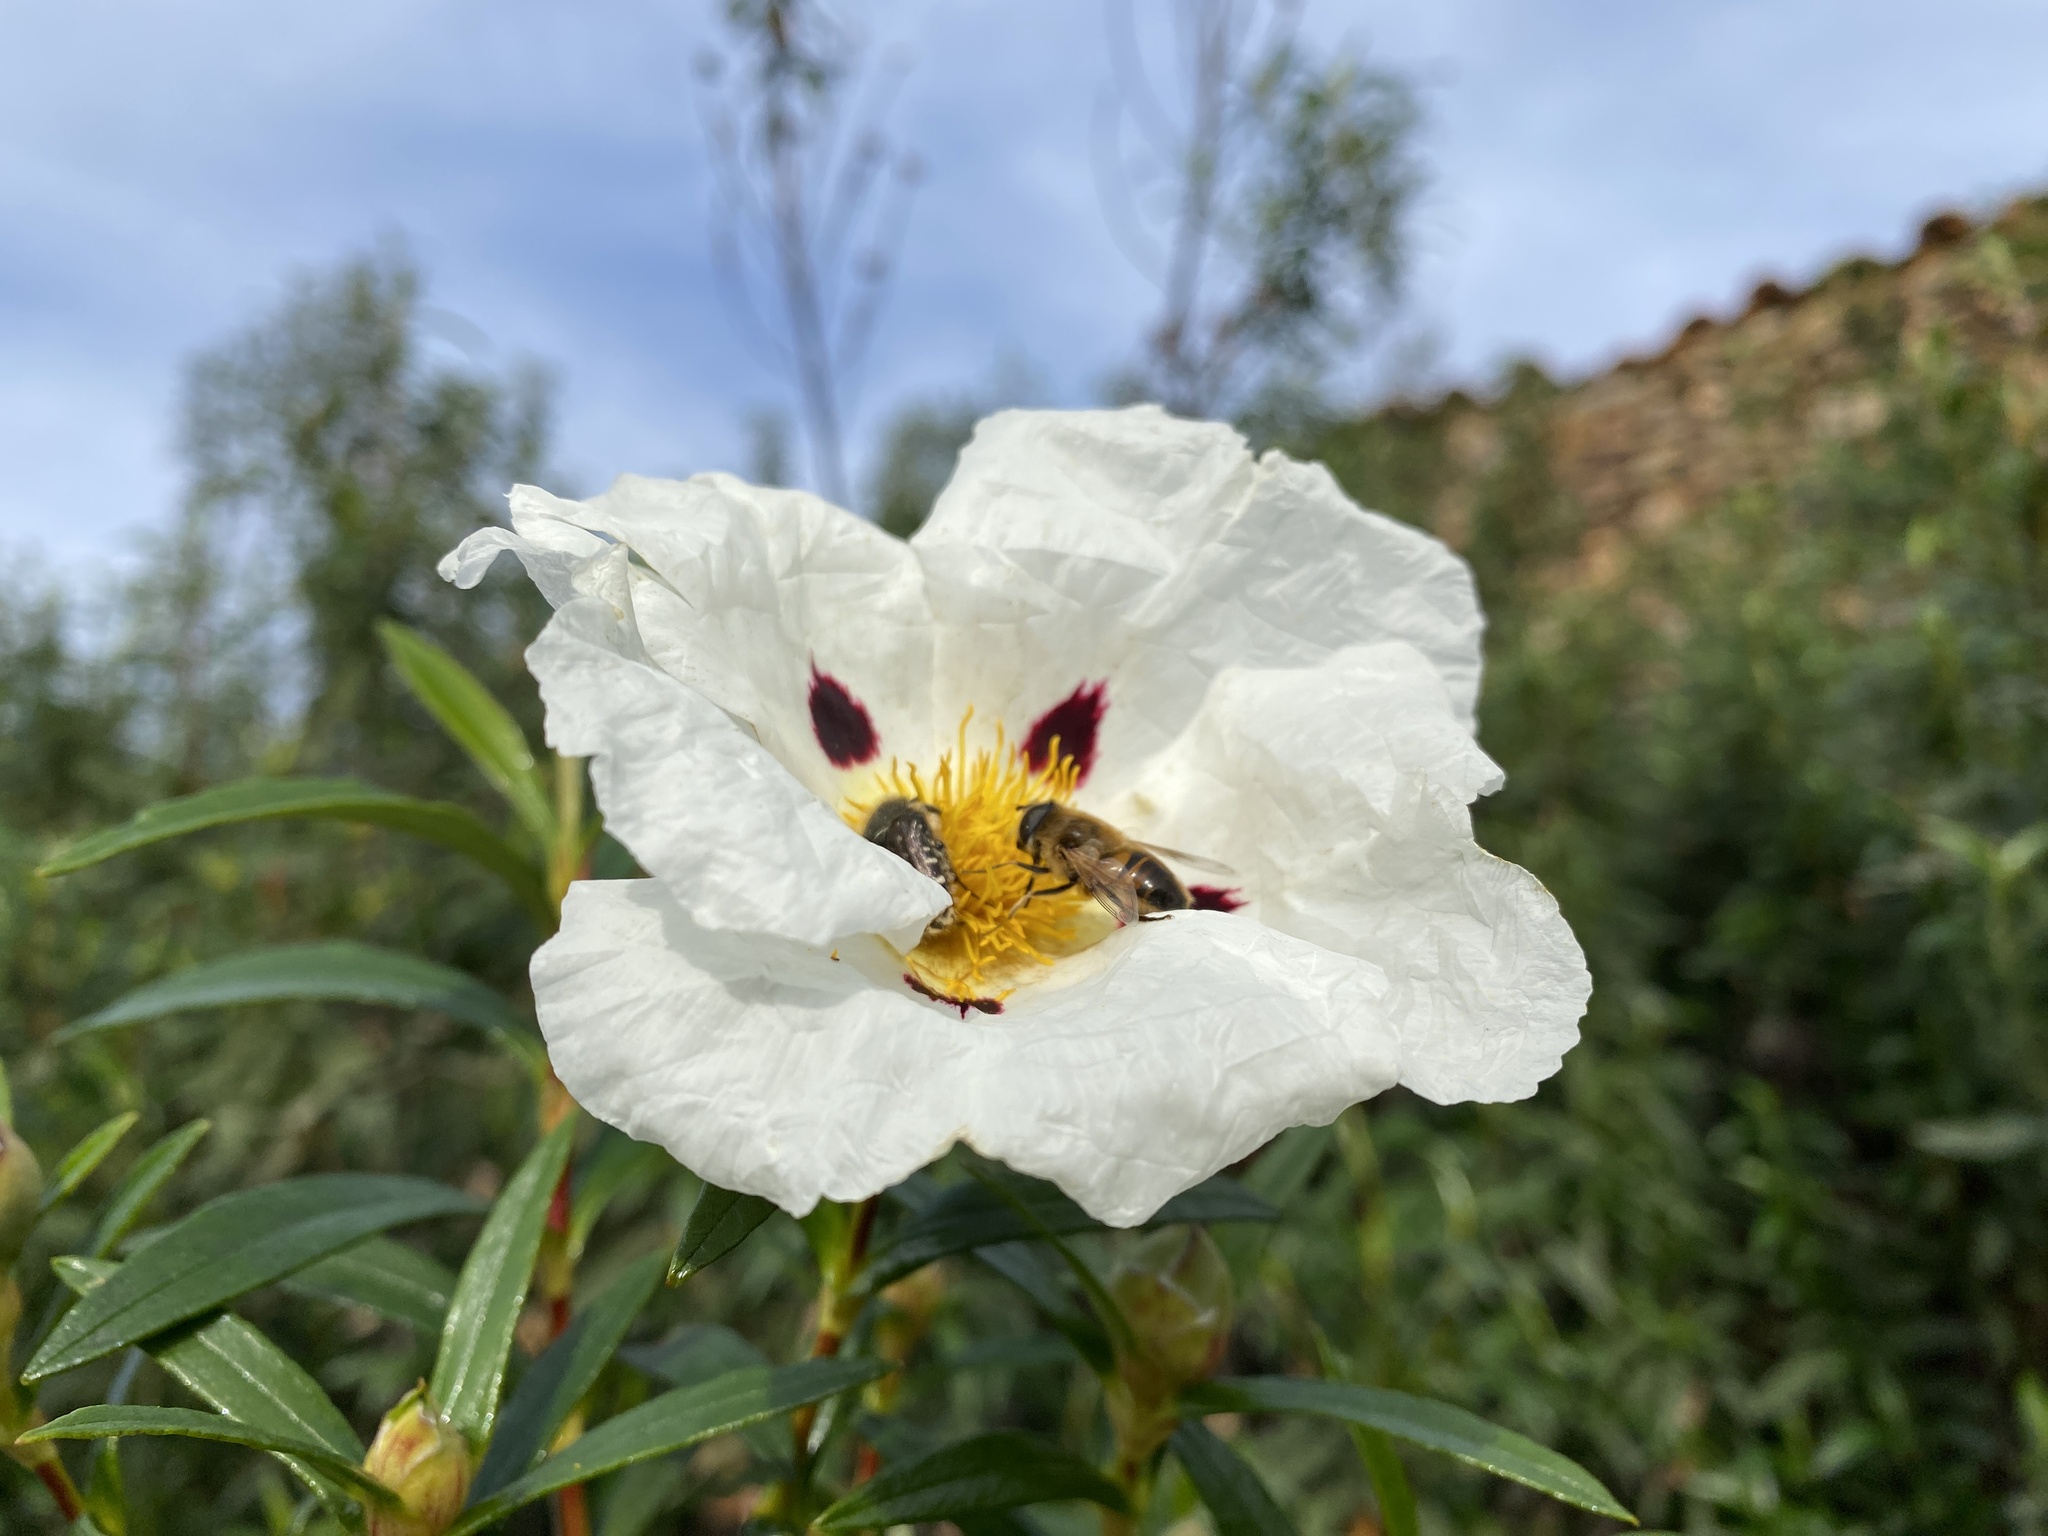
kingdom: Plantae
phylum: Tracheophyta
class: Magnoliopsida
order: Malvales
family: Cistaceae
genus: Cistus
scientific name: Cistus ladanifer
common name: Common gum cistus
